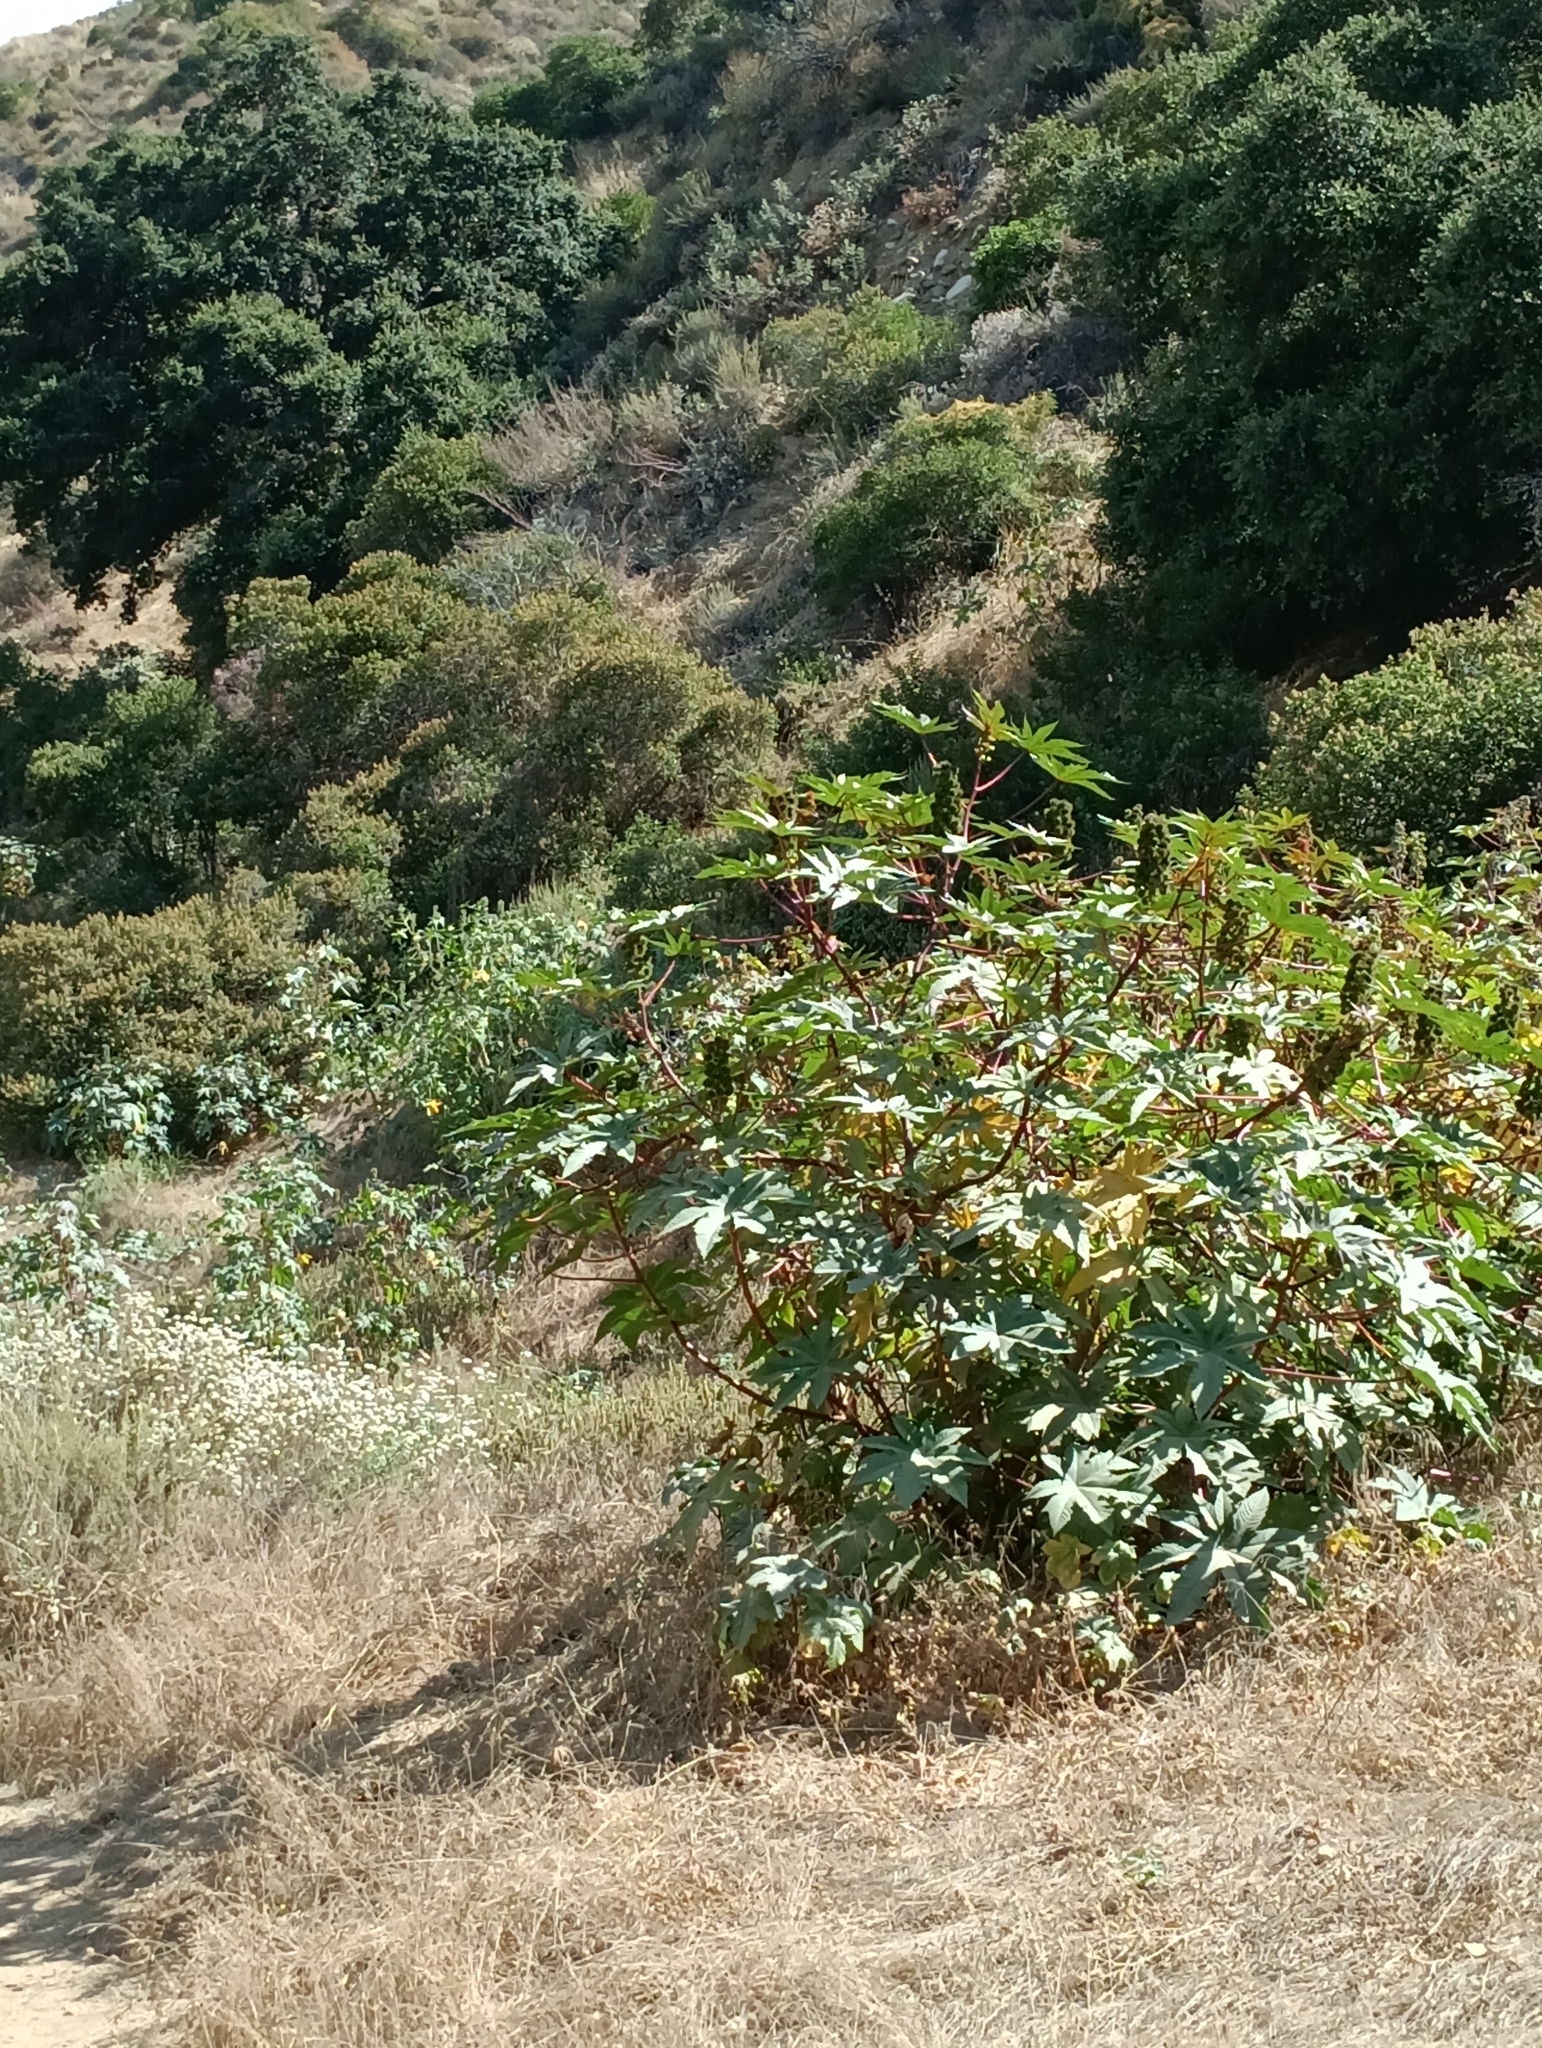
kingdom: Plantae
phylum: Tracheophyta
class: Magnoliopsida
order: Malpighiales
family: Euphorbiaceae
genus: Ricinus
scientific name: Ricinus communis
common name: Castor-oil-plant
